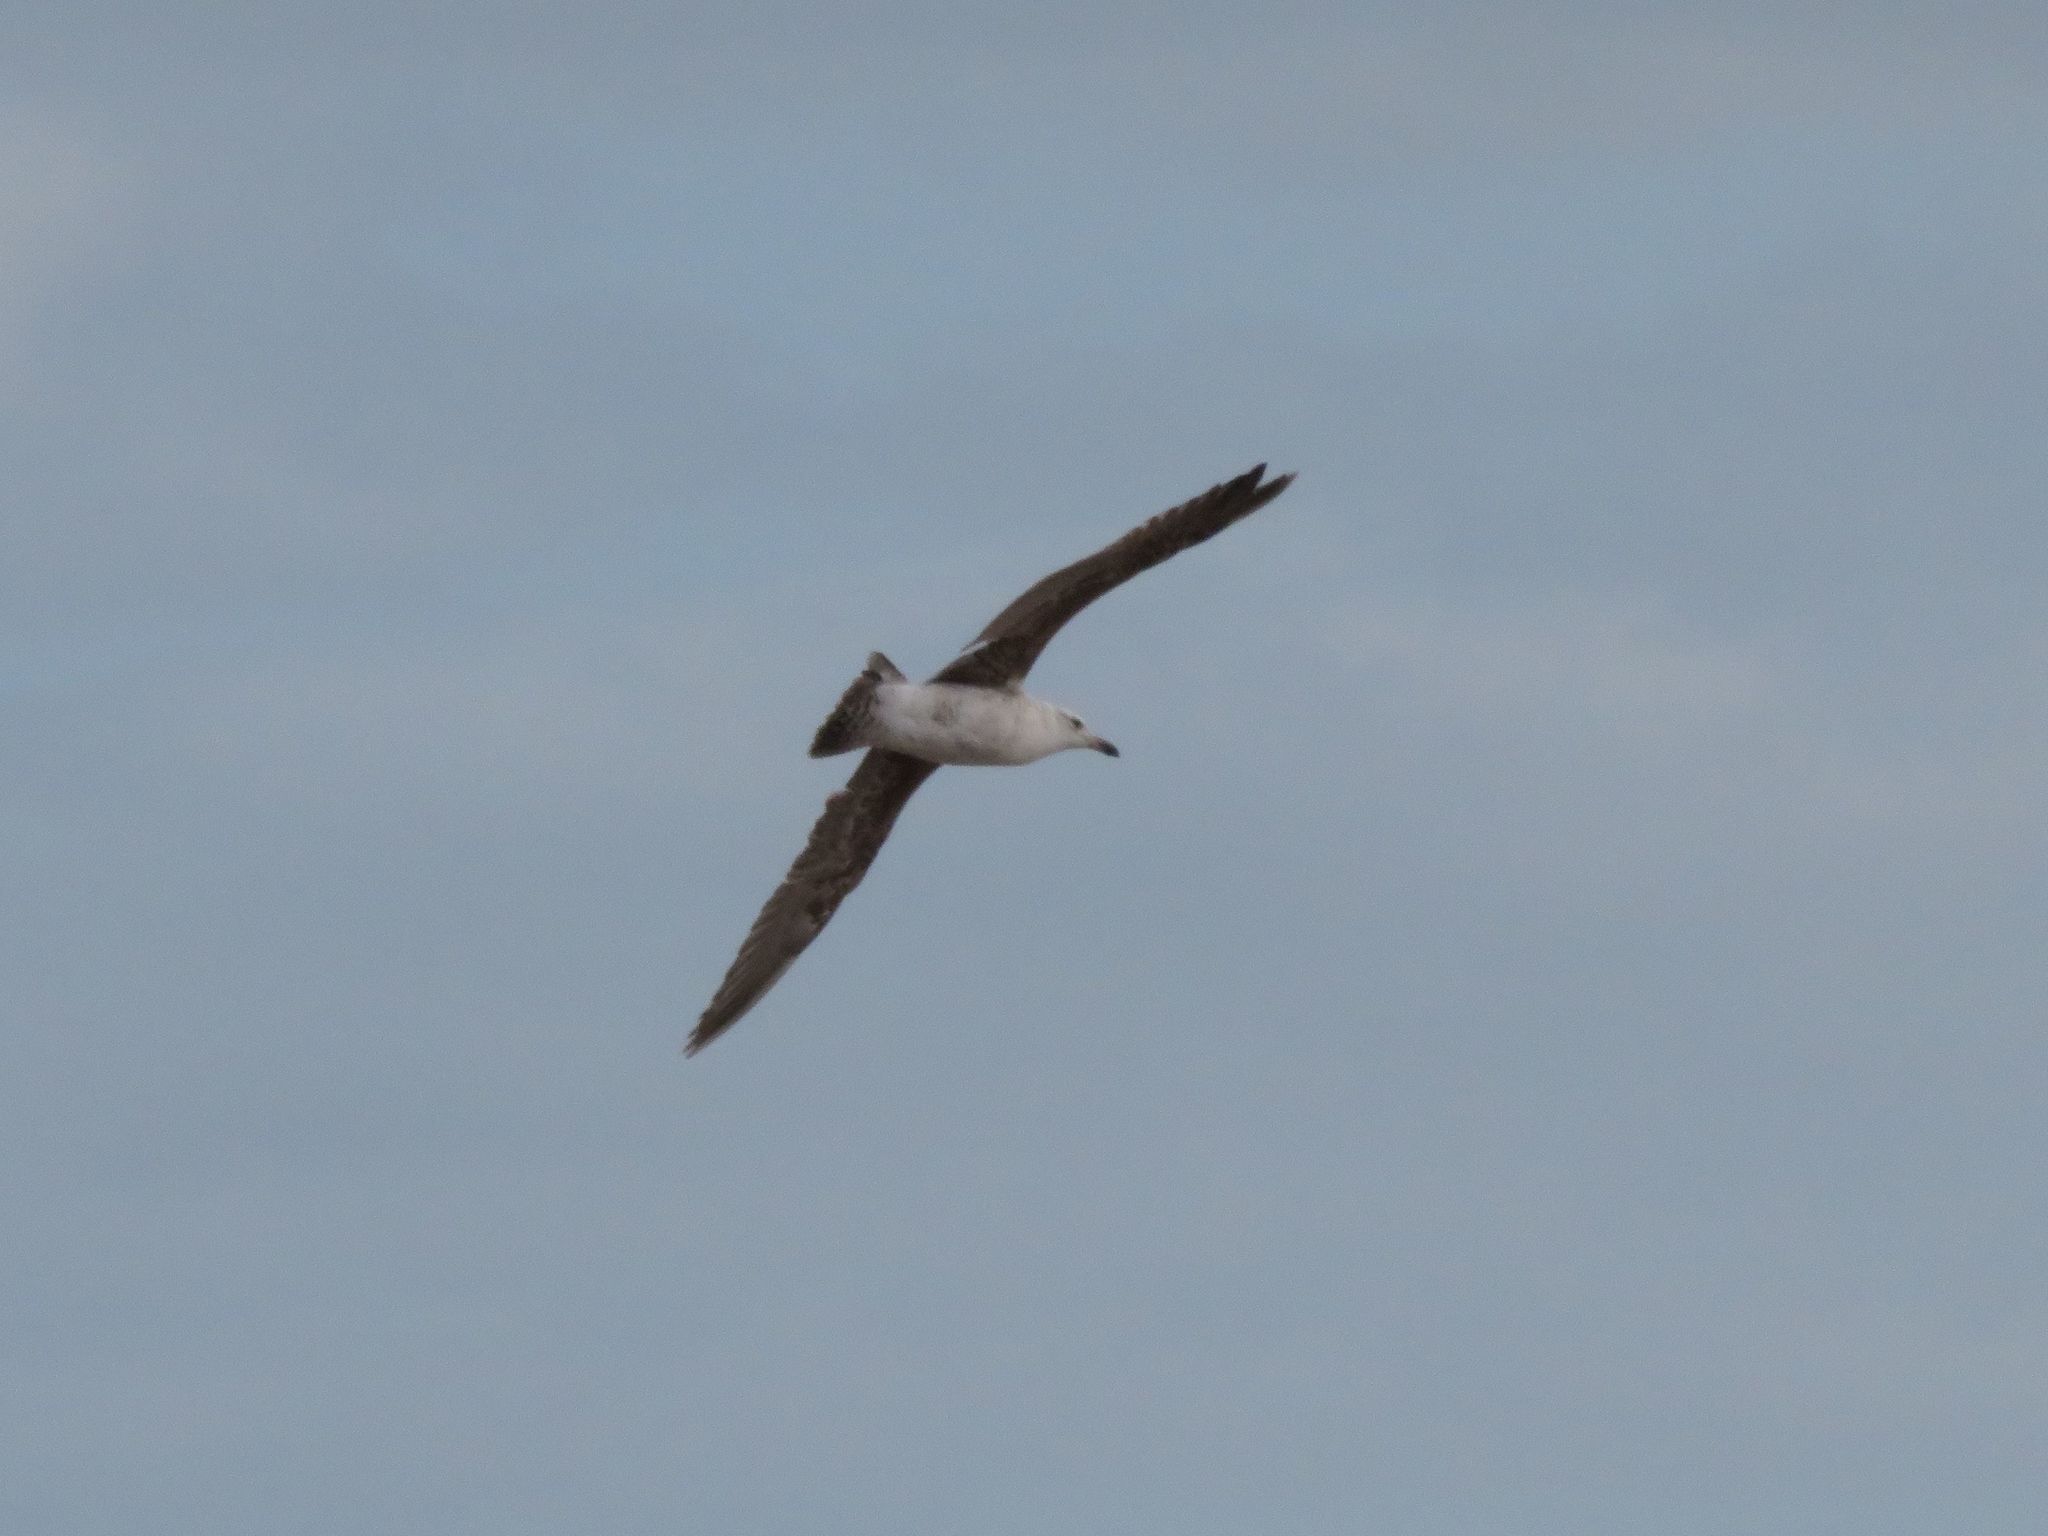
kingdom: Animalia
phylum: Chordata
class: Aves
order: Charadriiformes
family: Laridae
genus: Larus
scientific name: Larus dominicanus
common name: Kelp gull
